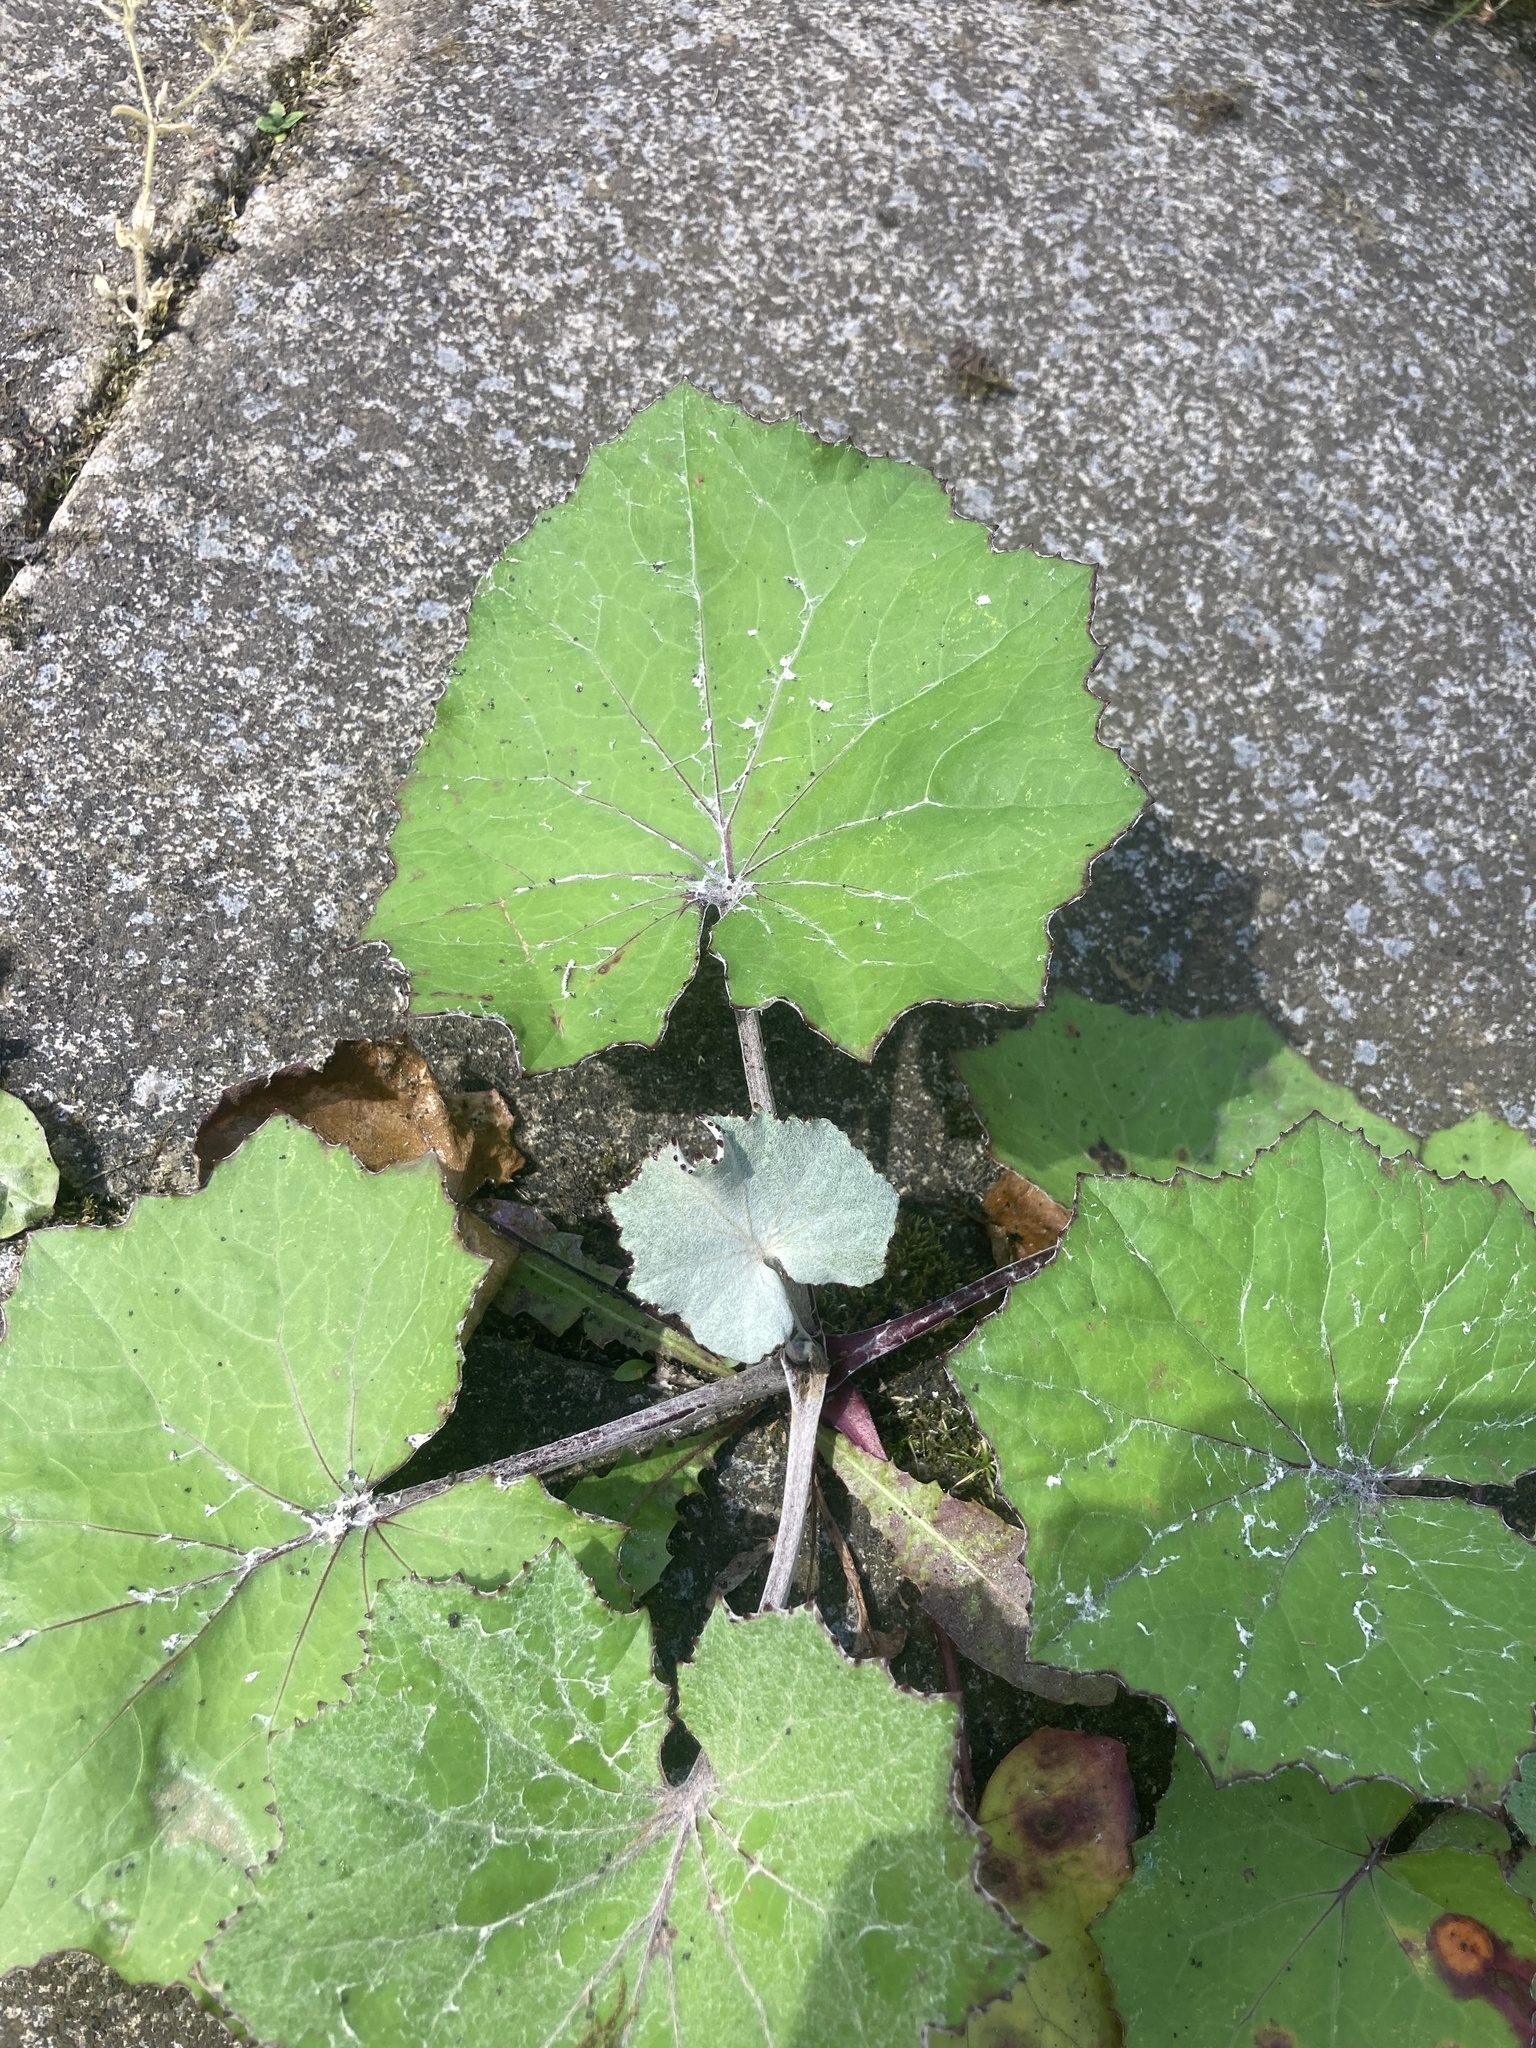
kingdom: Plantae
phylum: Tracheophyta
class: Magnoliopsida
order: Asterales
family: Asteraceae
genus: Tussilago
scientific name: Tussilago farfara
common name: Coltsfoot
